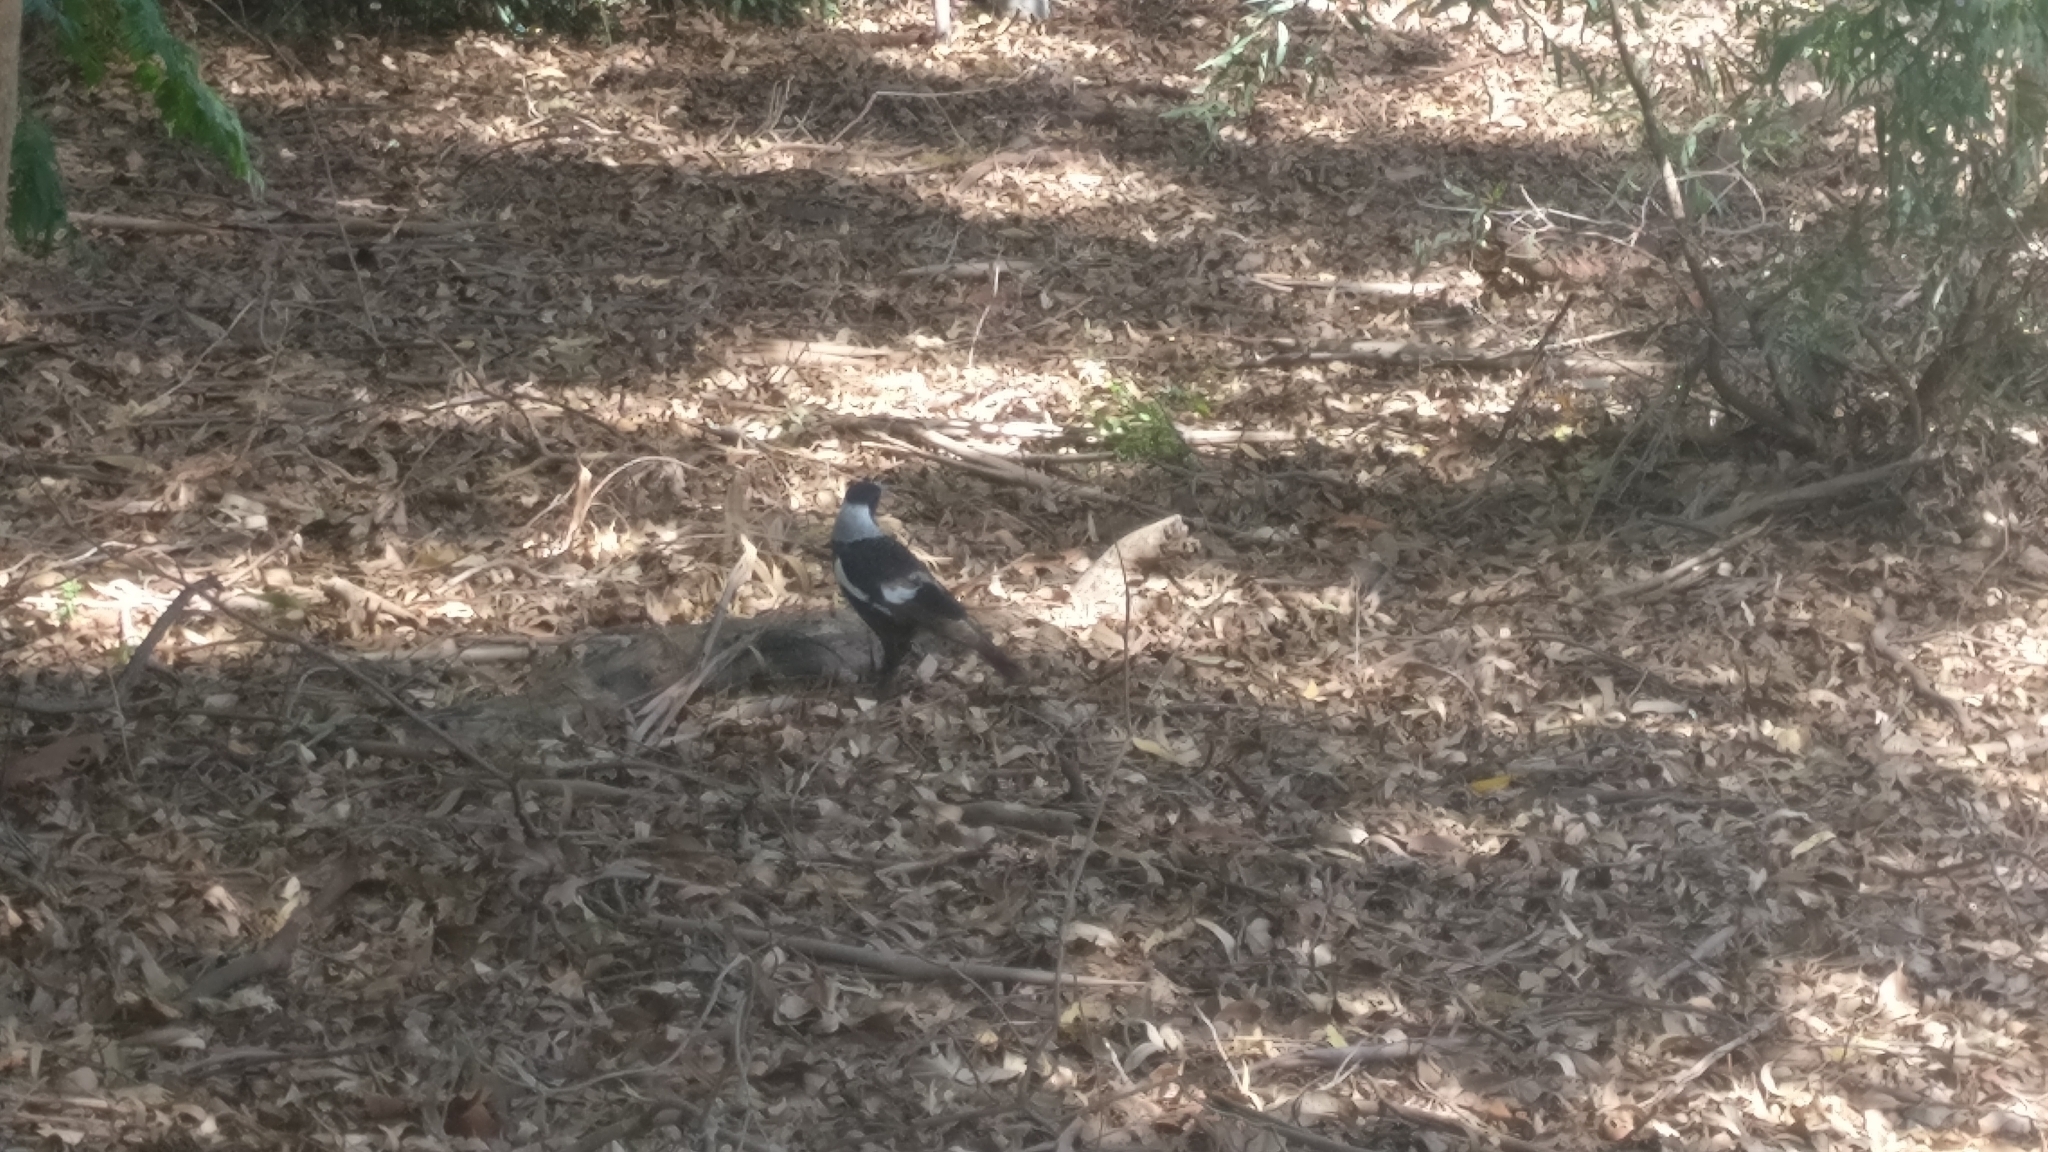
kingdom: Animalia
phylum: Chordata
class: Aves
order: Passeriformes
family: Cracticidae
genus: Gymnorhina
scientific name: Gymnorhina tibicen
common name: Australian magpie
